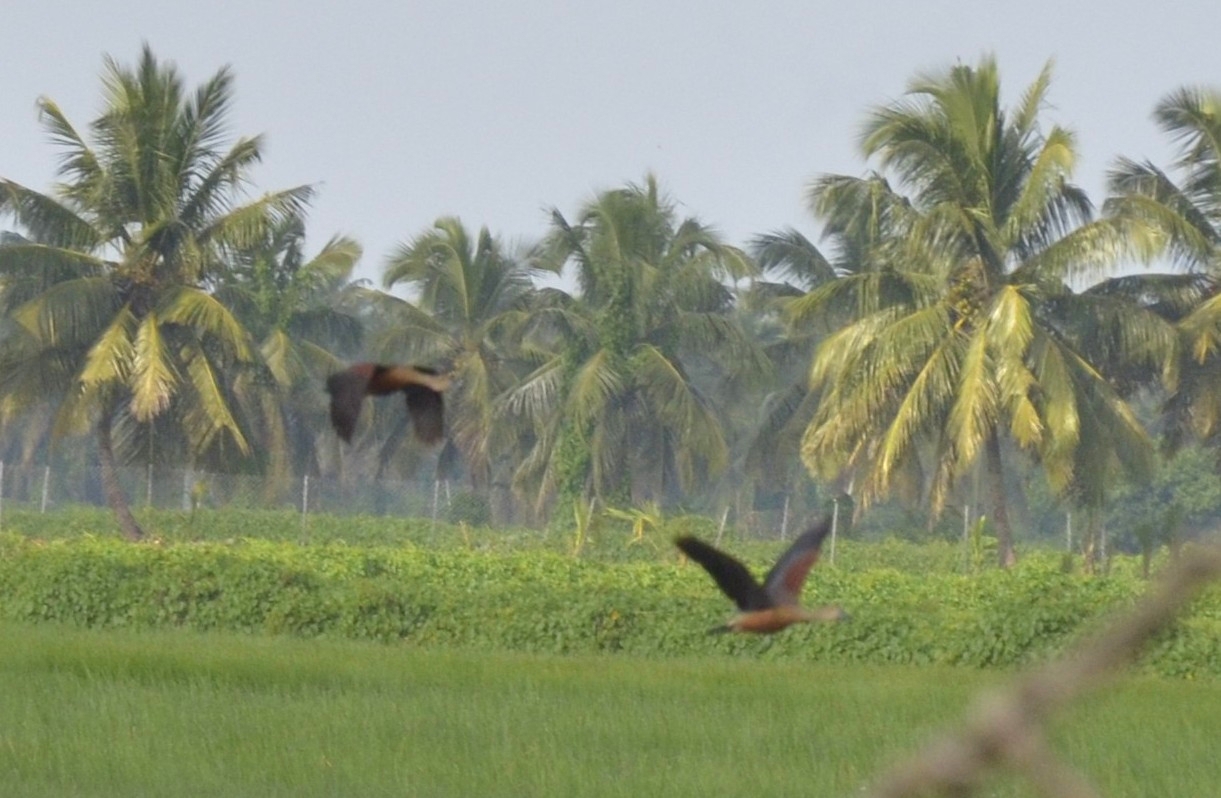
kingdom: Animalia
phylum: Chordata
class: Aves
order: Anseriformes
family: Anatidae
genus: Dendrocygna
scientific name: Dendrocygna javanica
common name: Lesser whistling-duck
